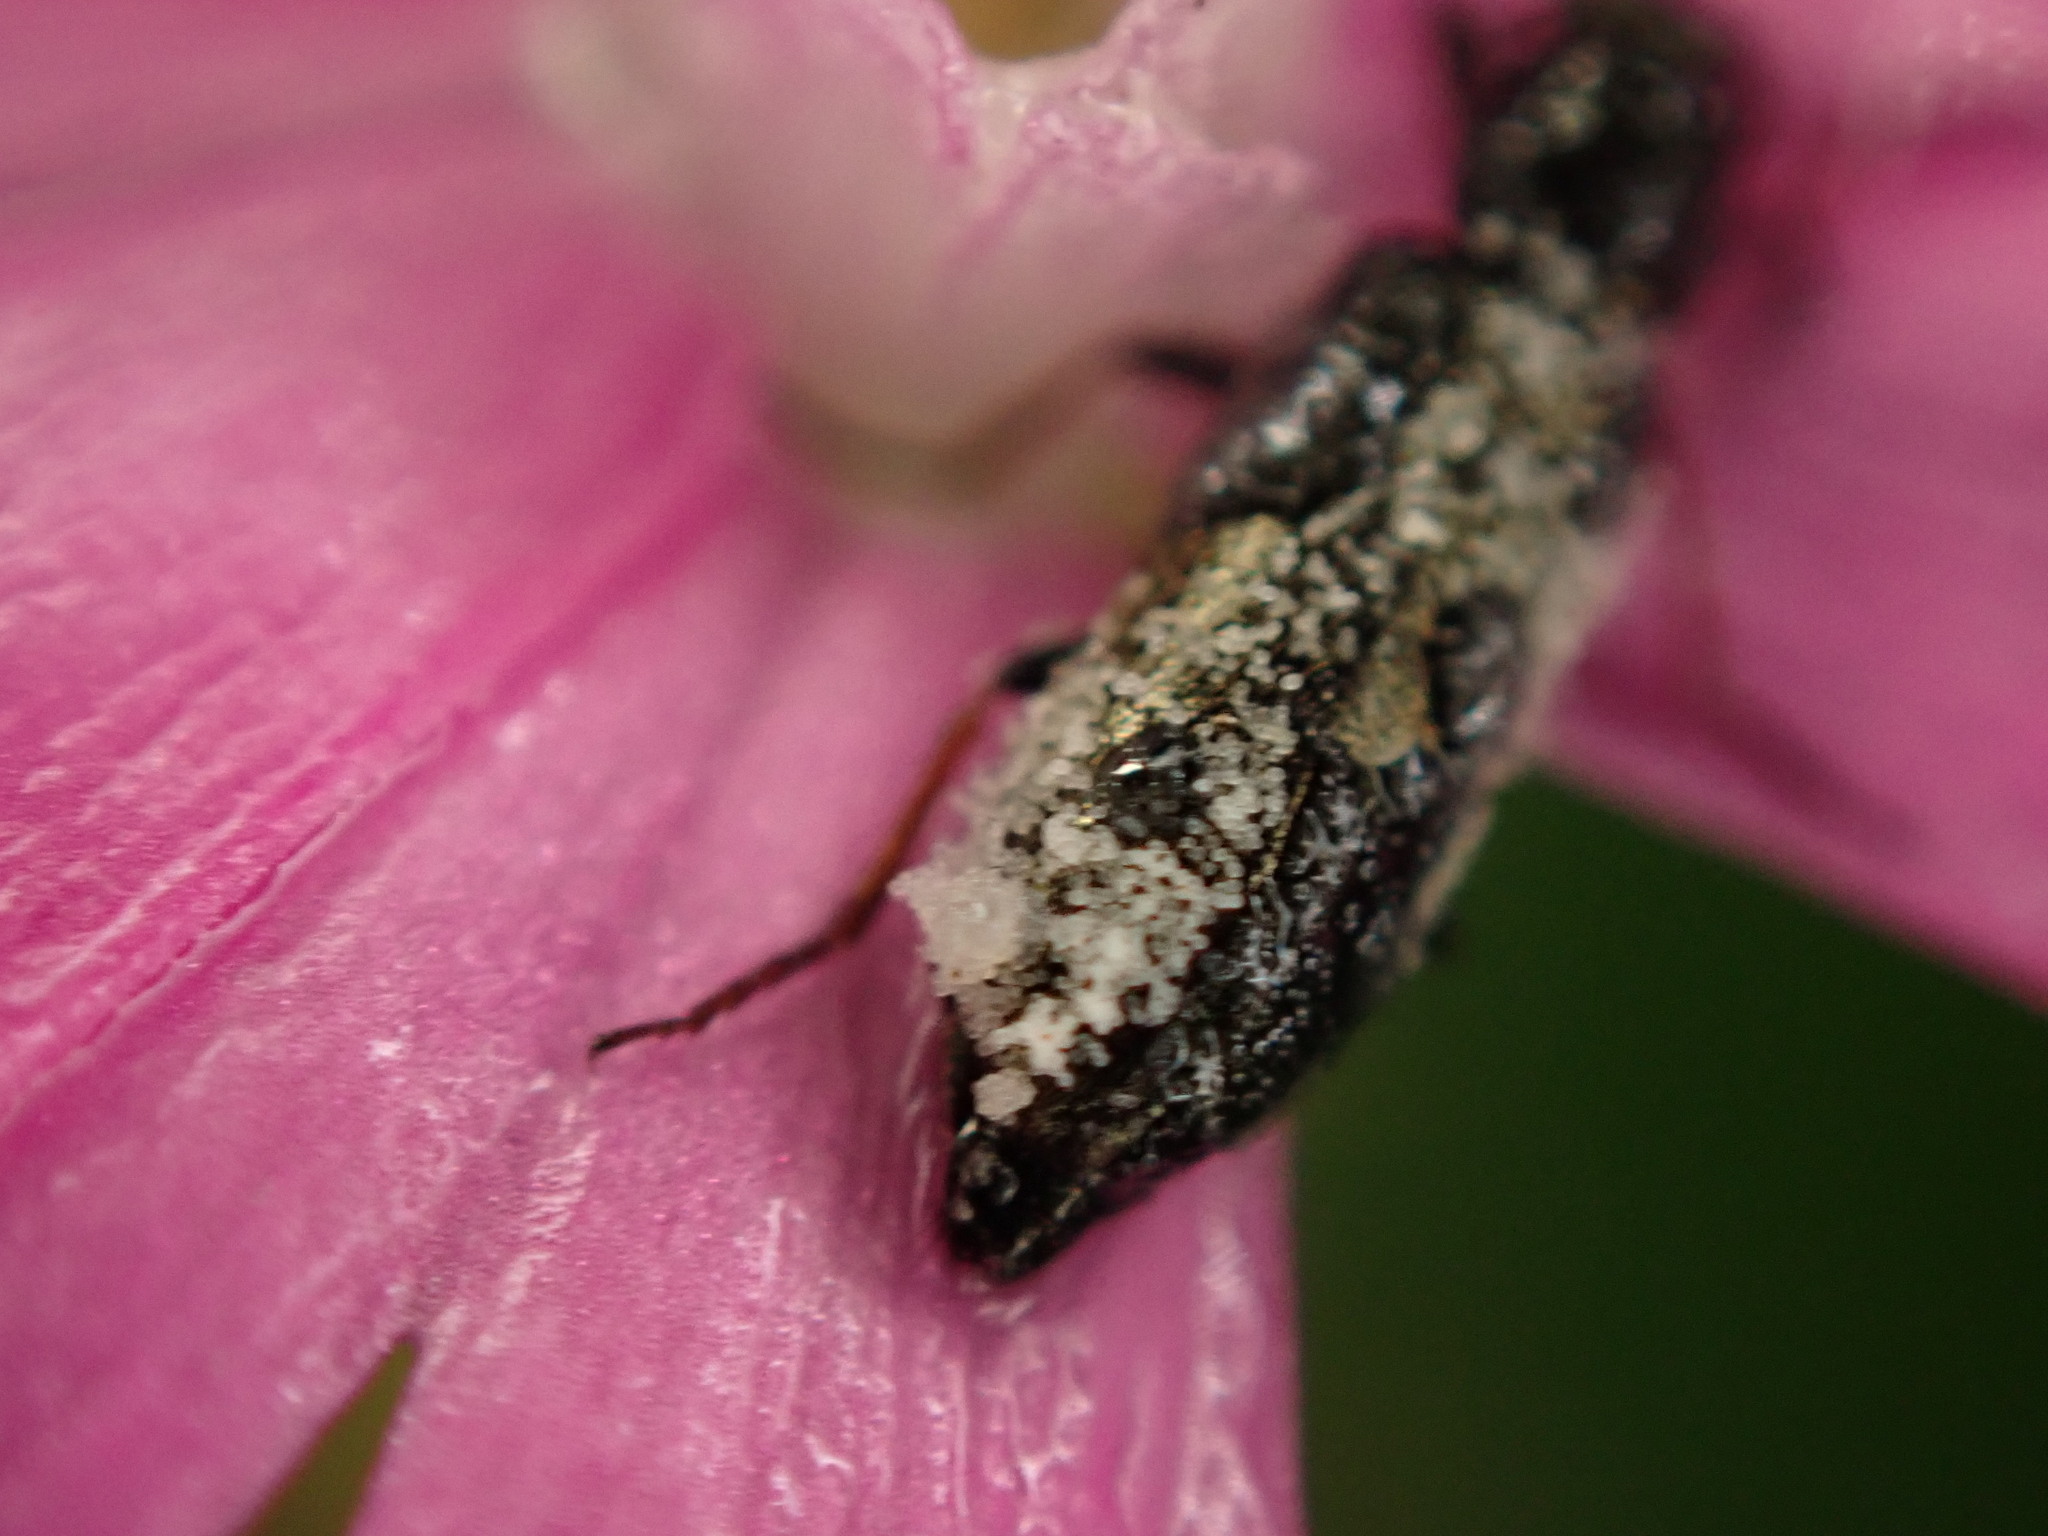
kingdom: Animalia
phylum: Arthropoda
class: Insecta
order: Coleoptera
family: Melyridae
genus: Dasytes
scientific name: Dasytes plumbeus
